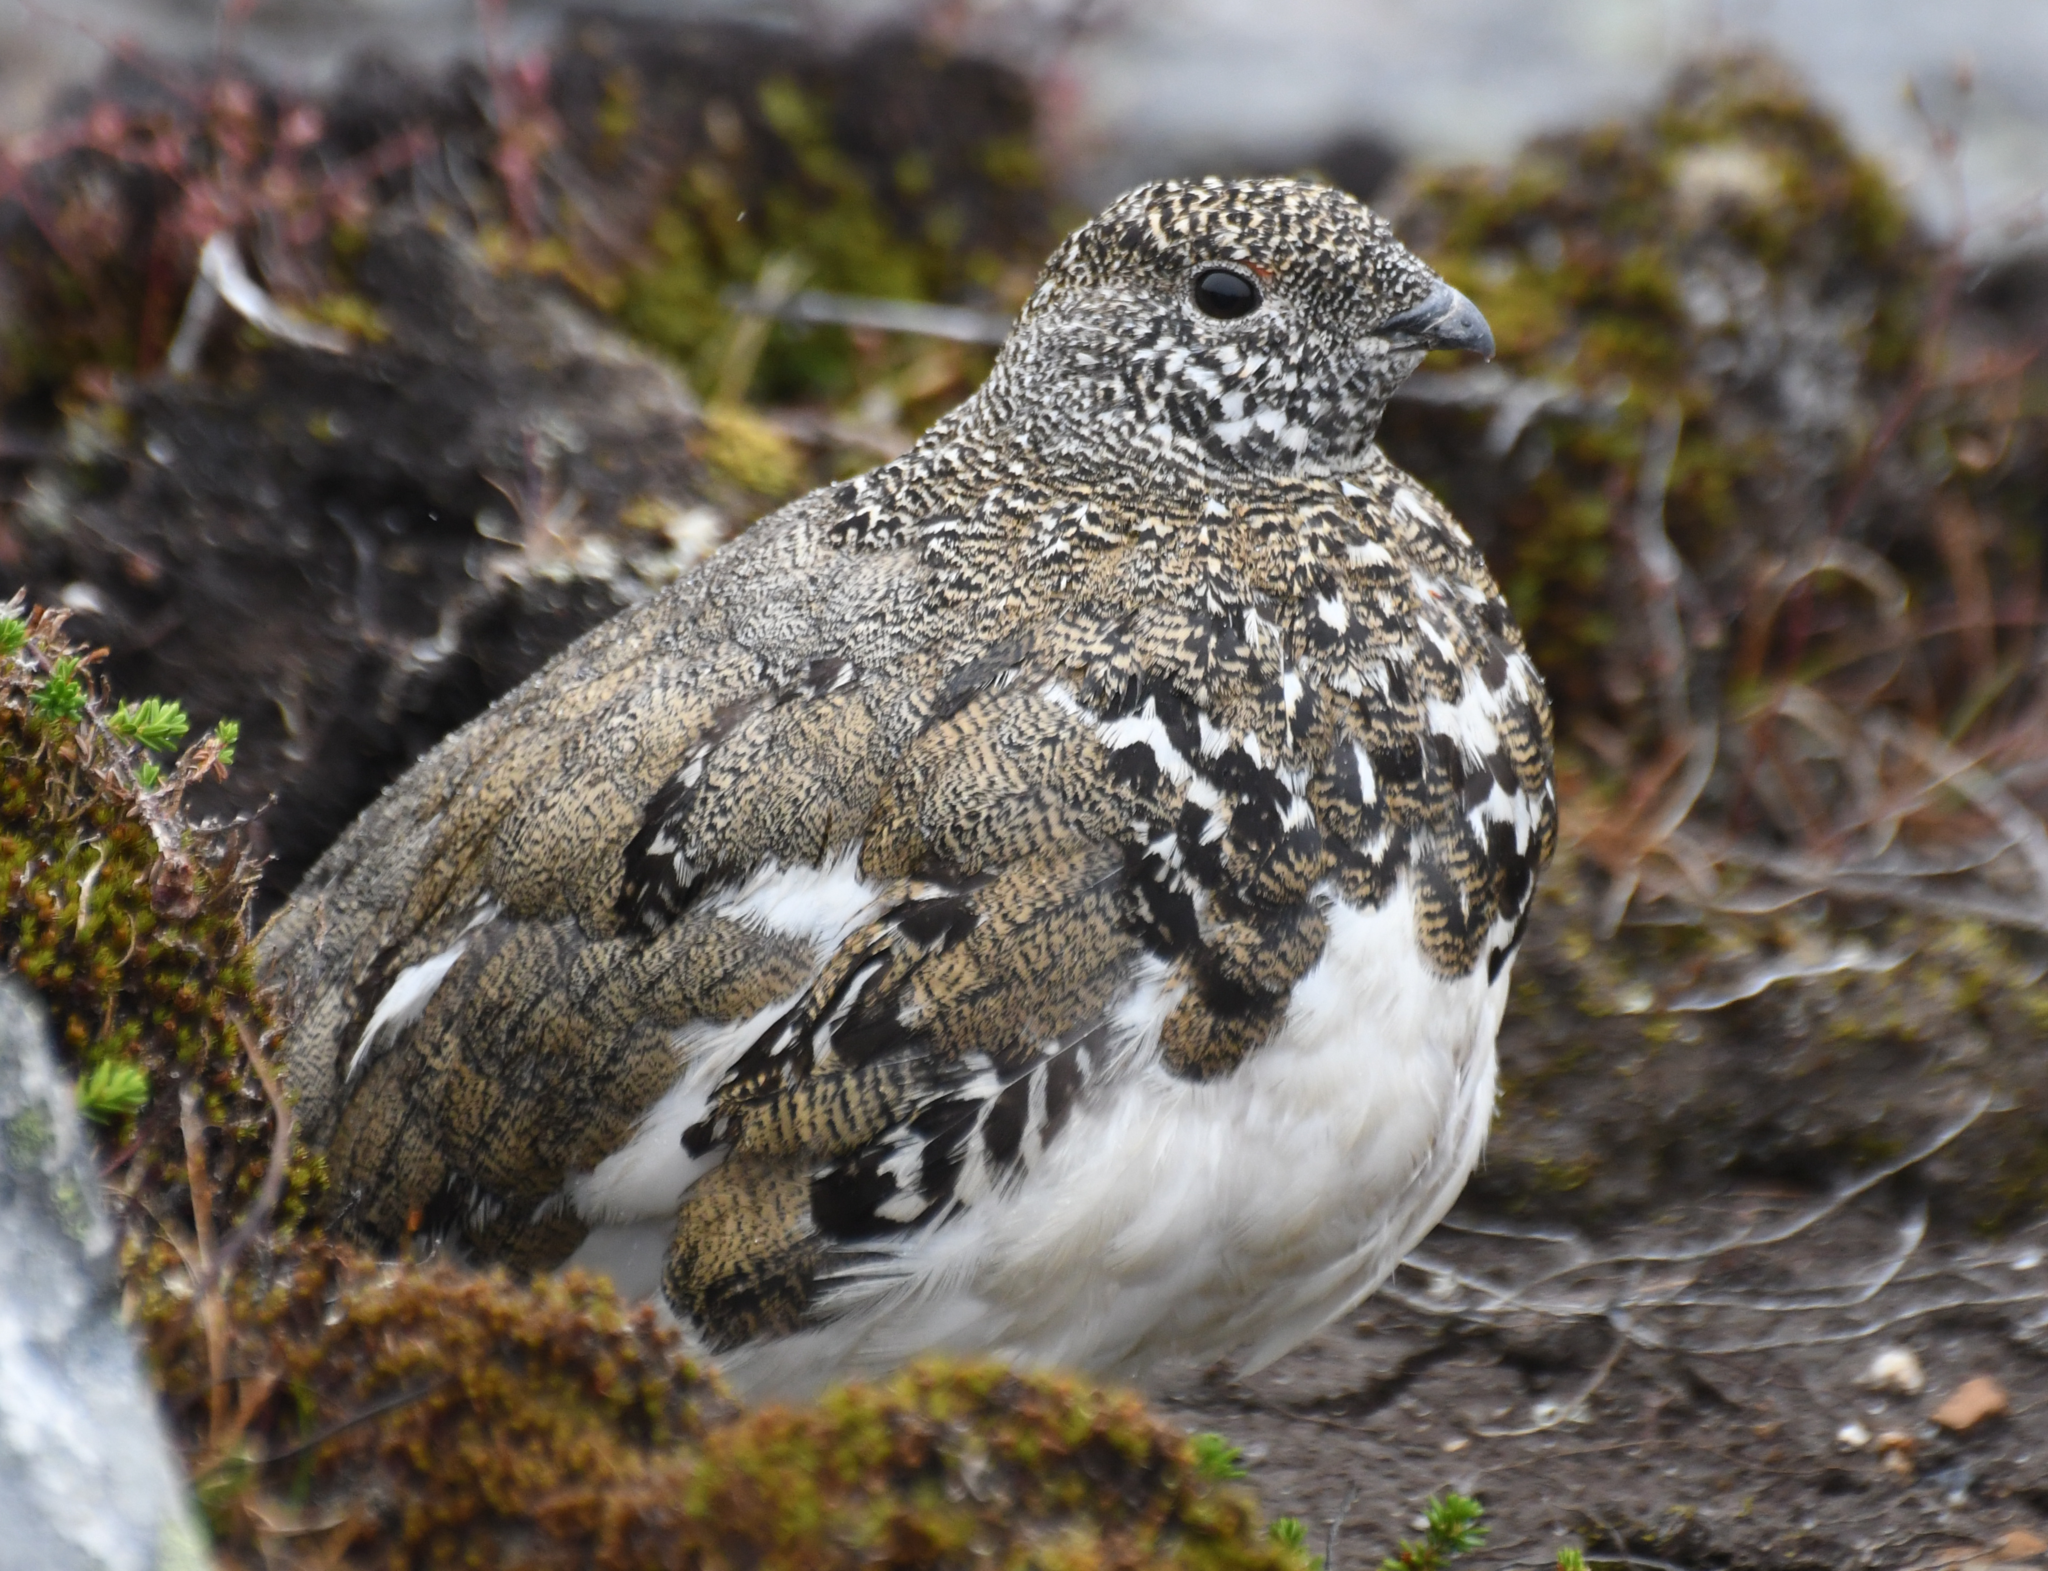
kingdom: Animalia
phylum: Chordata
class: Aves
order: Galliformes
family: Phasianidae
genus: Lagopus
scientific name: Lagopus leucura
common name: White-tailed ptarmigan
